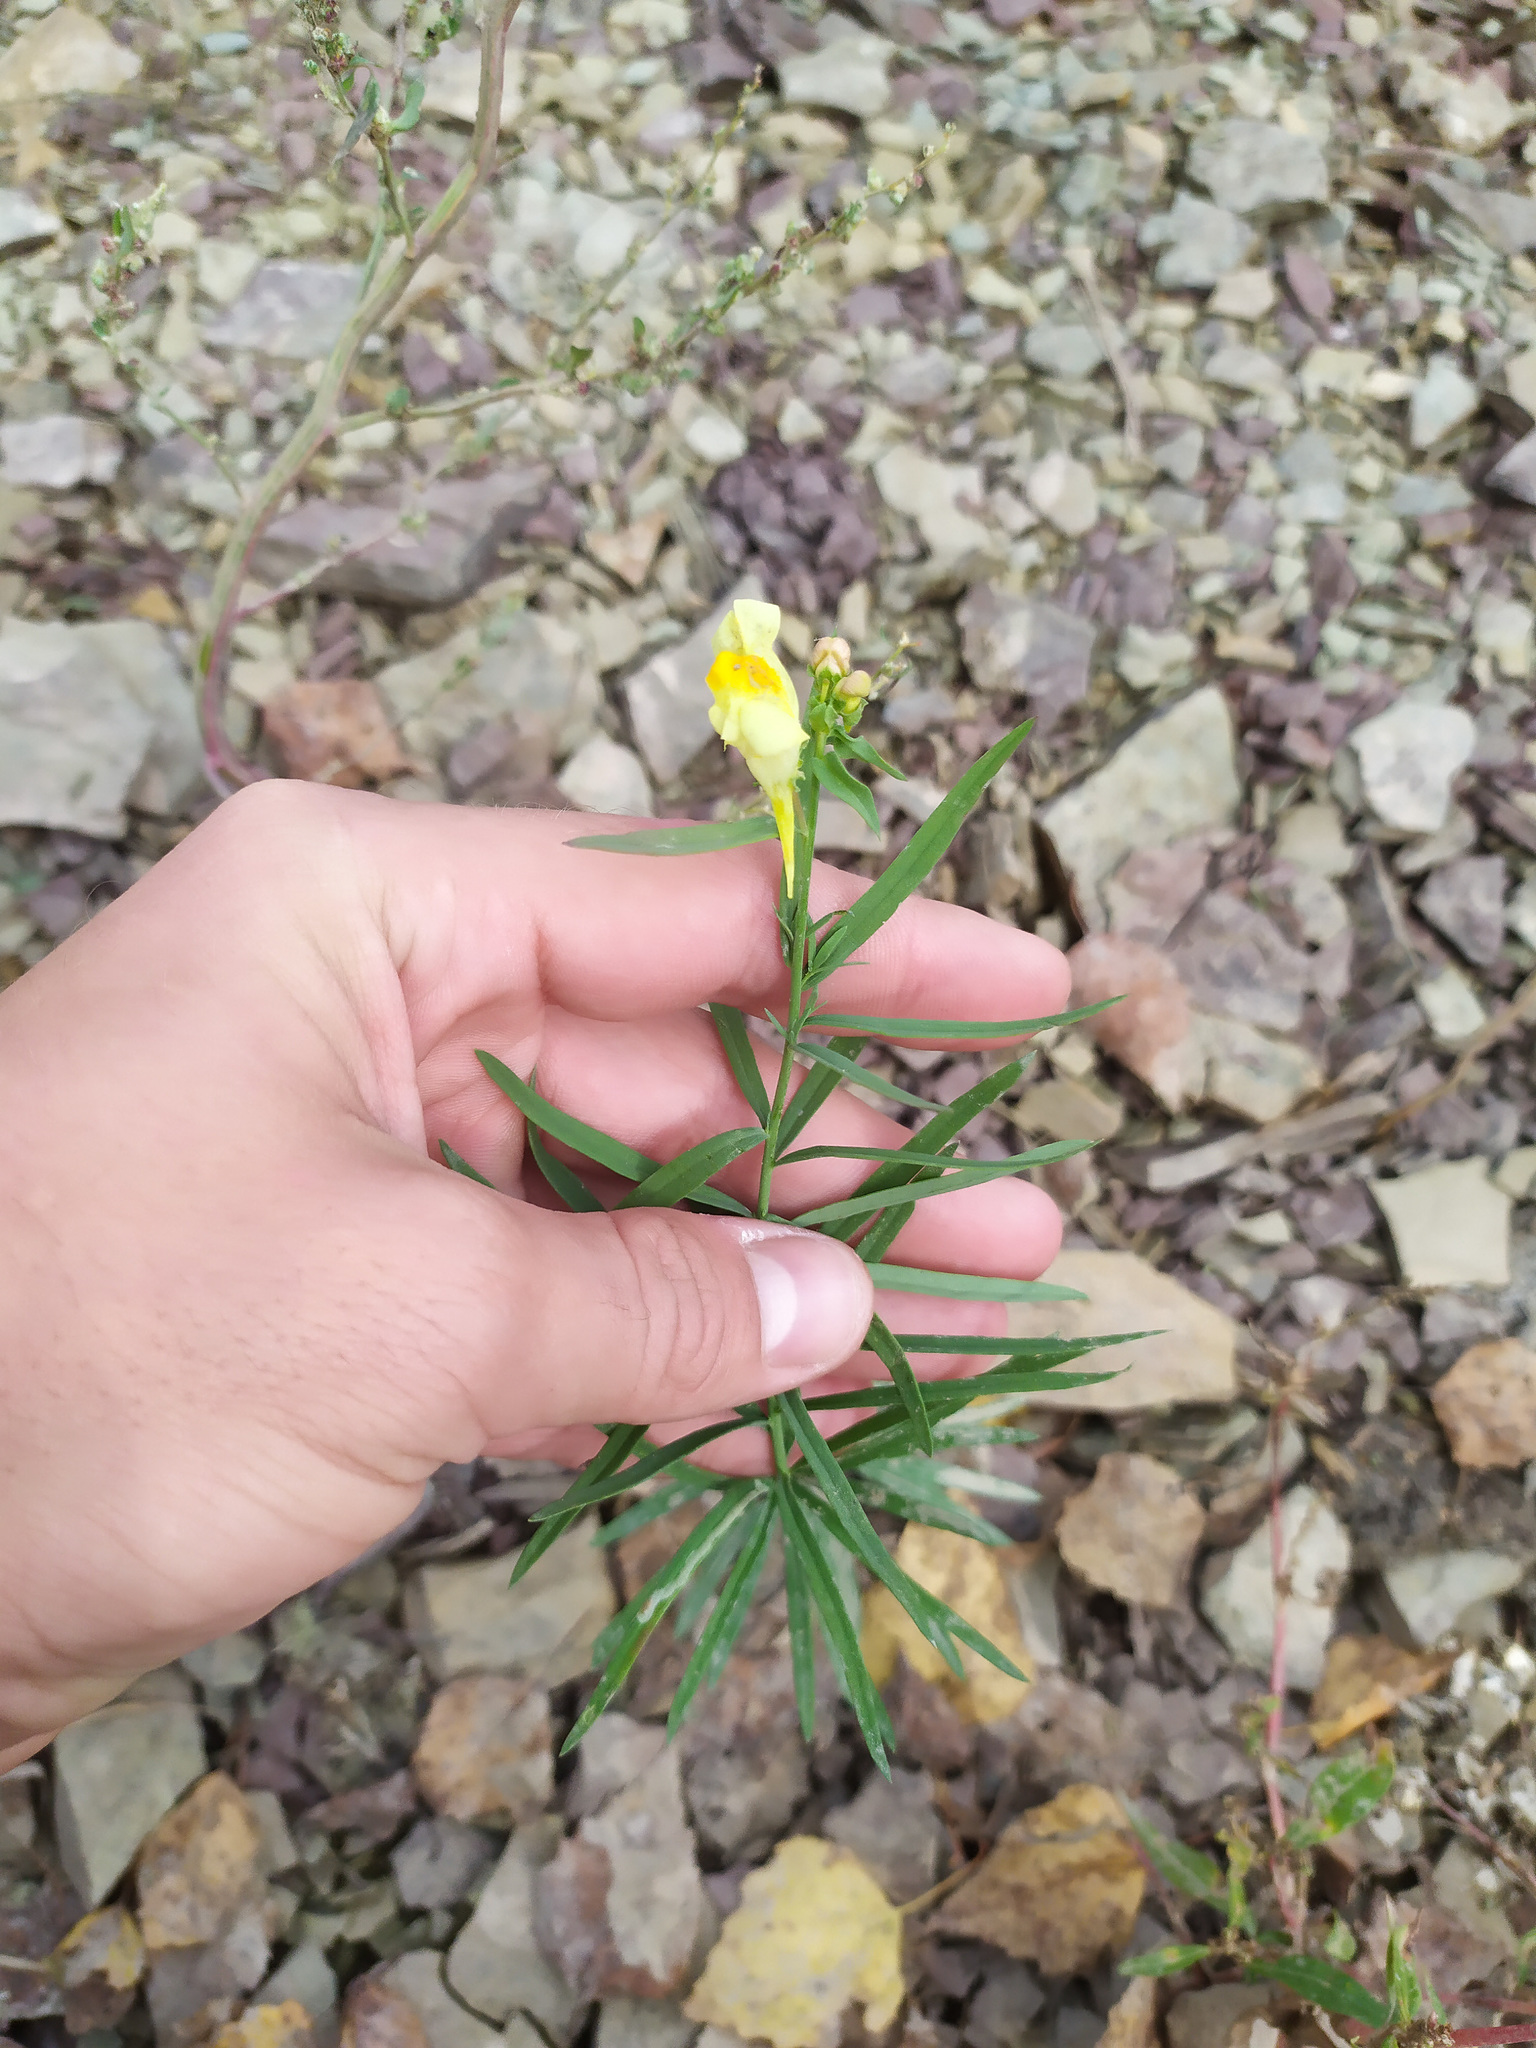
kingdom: Plantae
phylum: Tracheophyta
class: Magnoliopsida
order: Lamiales
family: Plantaginaceae
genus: Linaria
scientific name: Linaria vulgaris
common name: Butter and eggs
